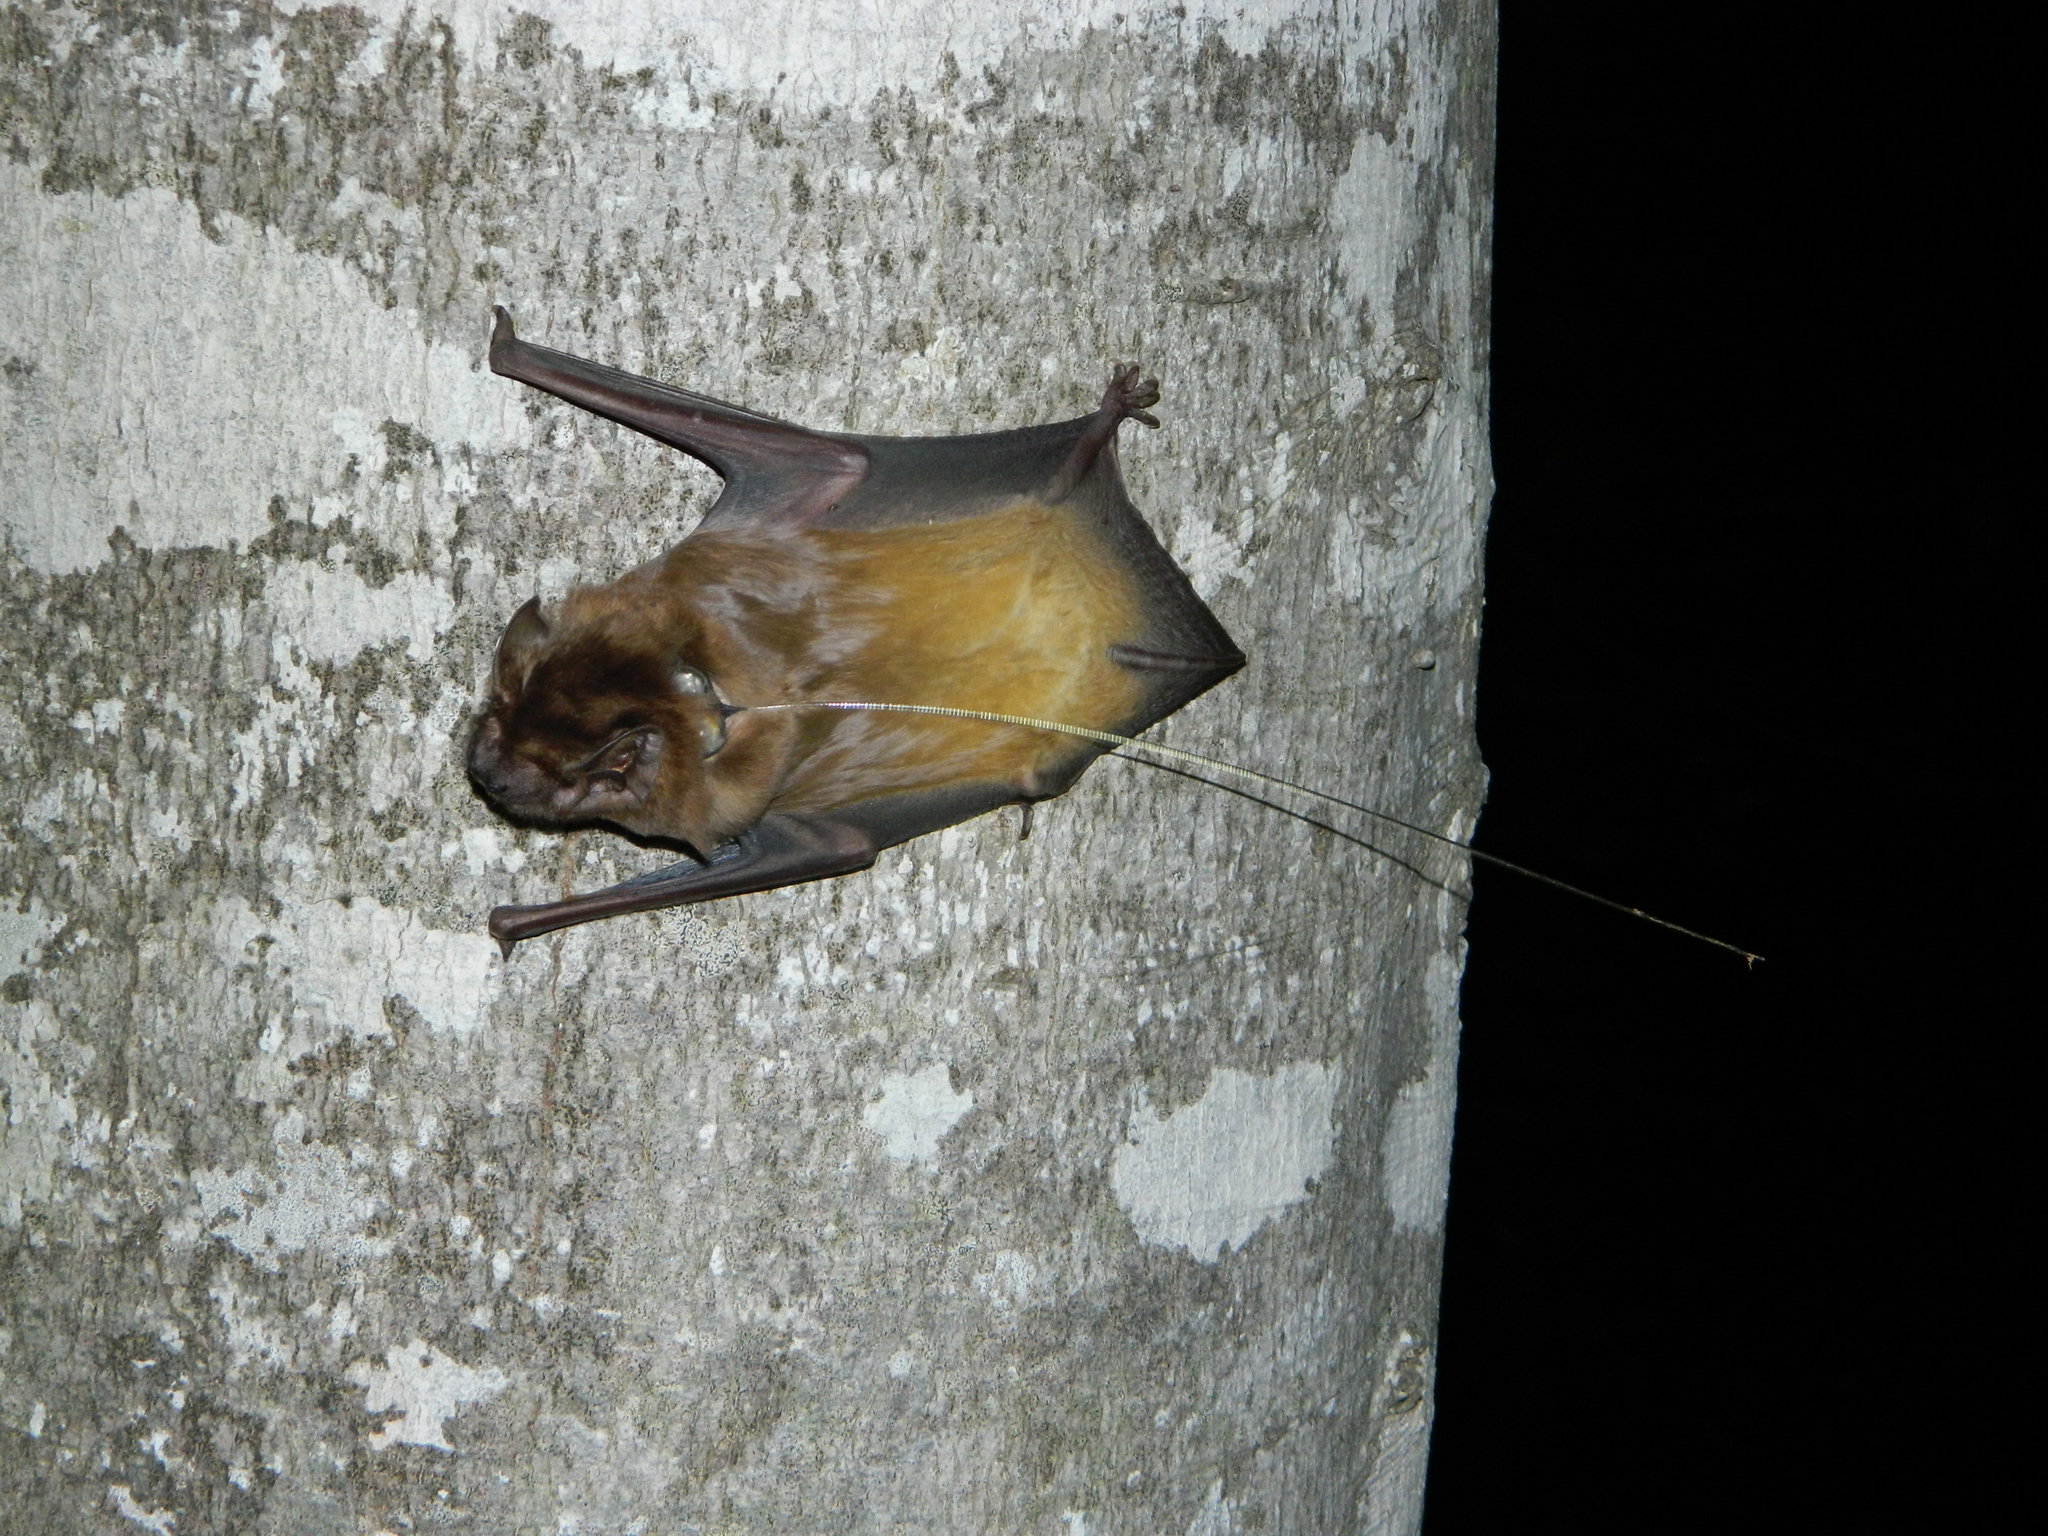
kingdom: Animalia
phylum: Chordata
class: Mammalia
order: Chiroptera
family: Vespertilionidae
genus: Nyctalus
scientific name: Nyctalus lasiopterus
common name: Giant noctule
